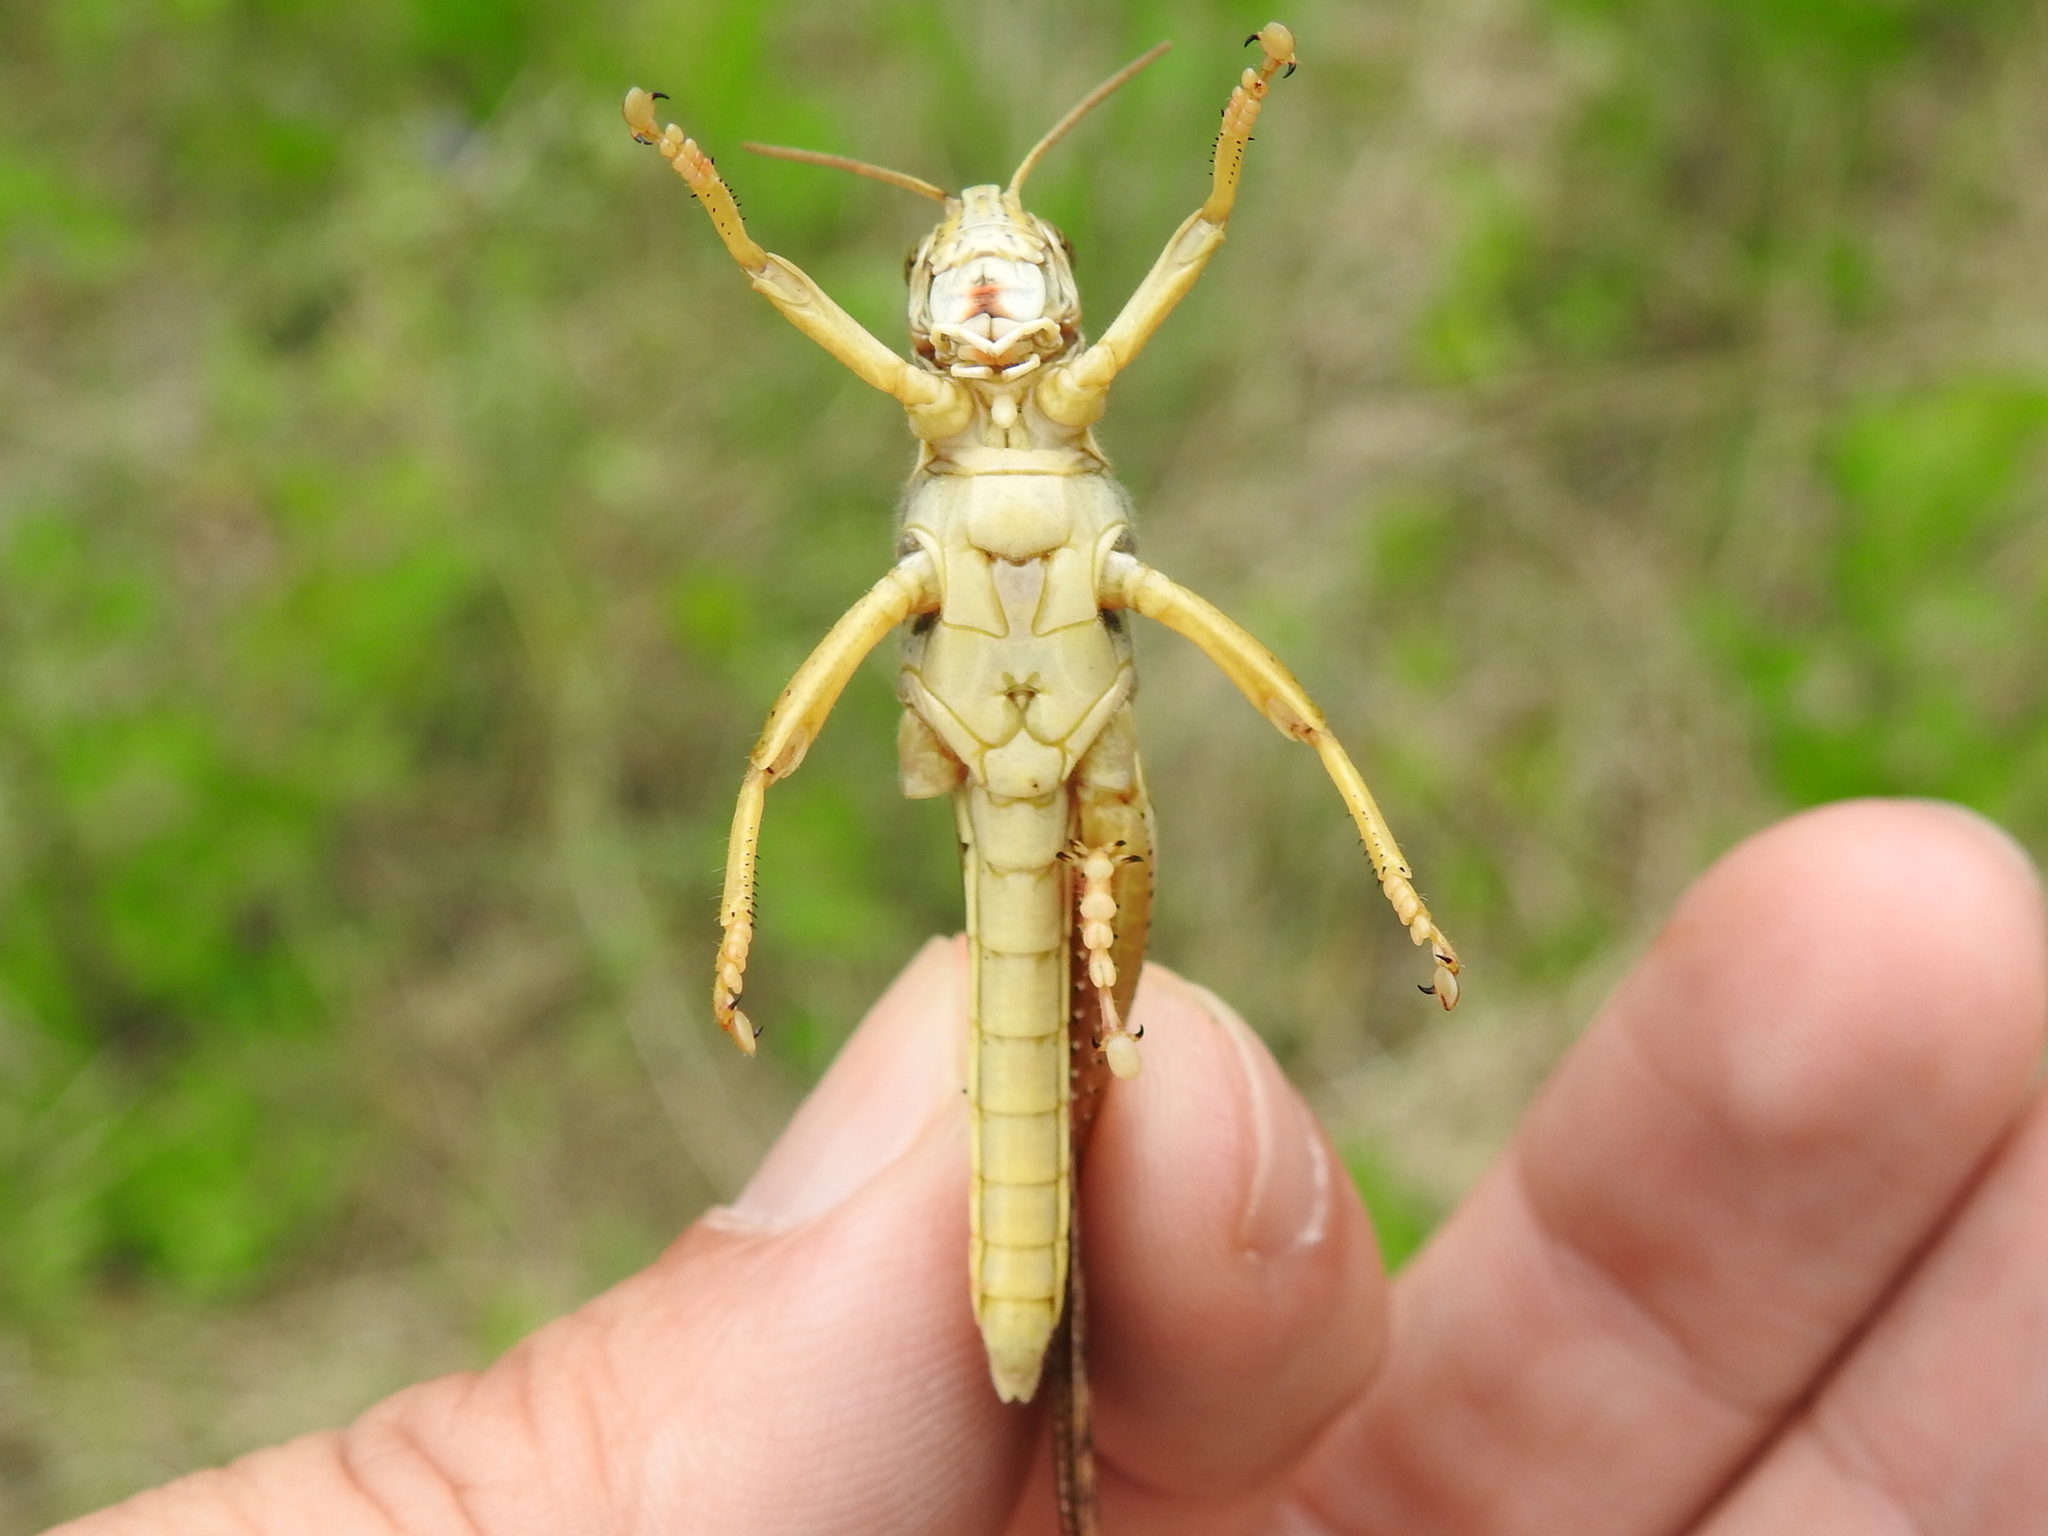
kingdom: Animalia
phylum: Arthropoda
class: Insecta
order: Orthoptera
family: Acrididae
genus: Schistocerca
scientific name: Schistocerca americana
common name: American bird locust
